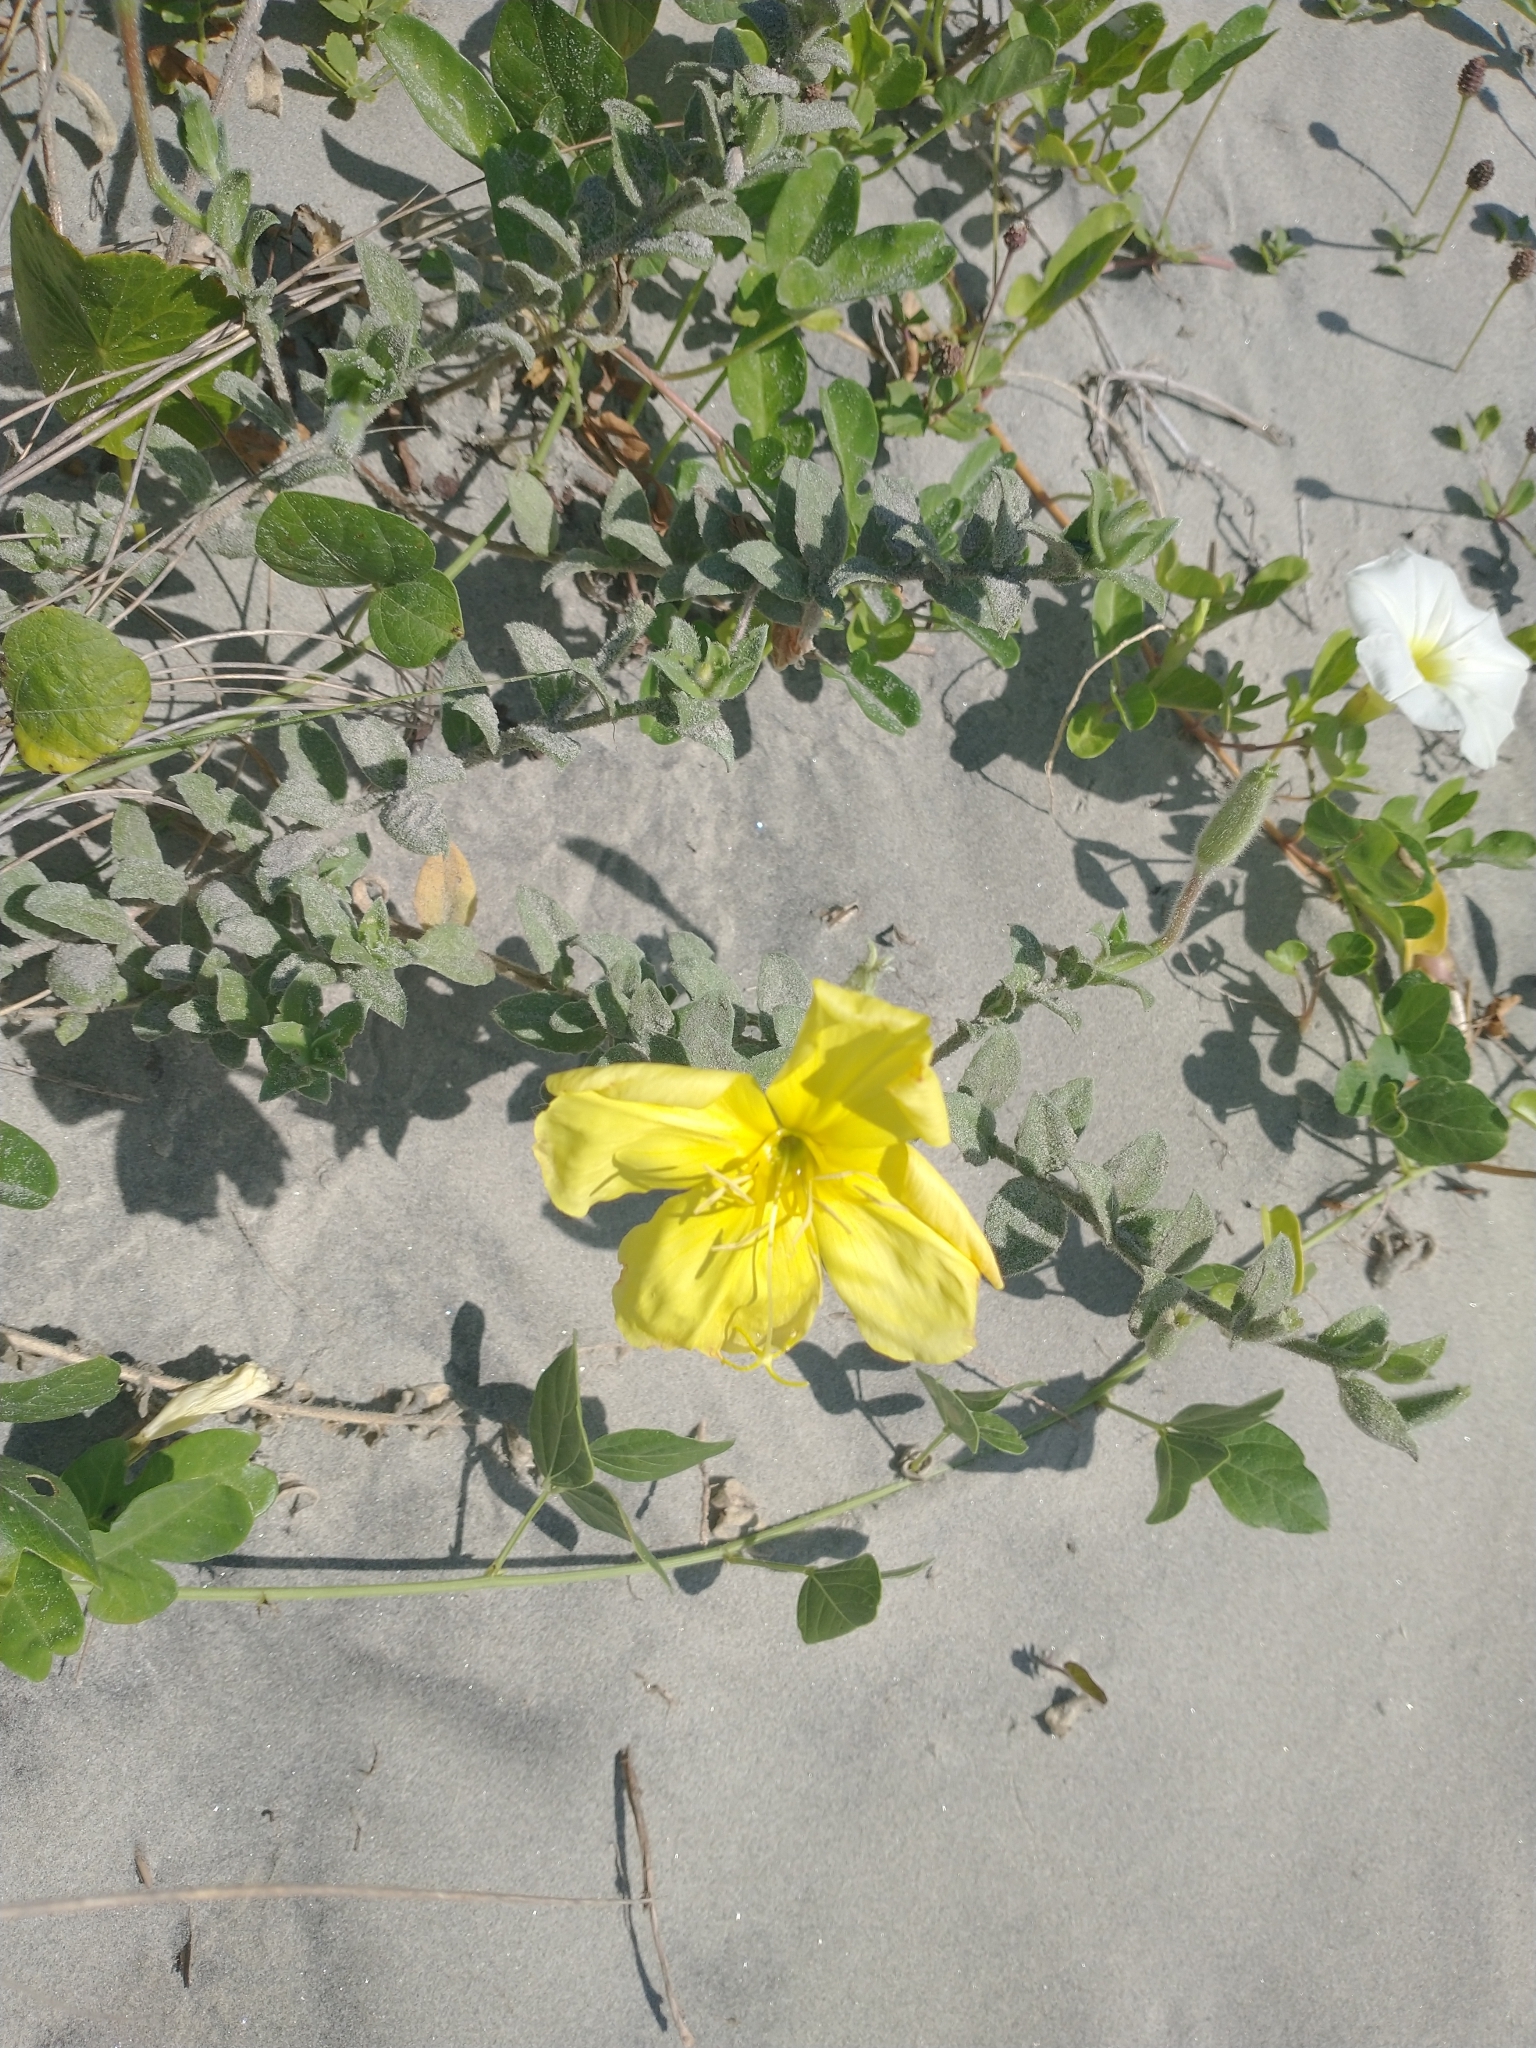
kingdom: Plantae
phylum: Tracheophyta
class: Magnoliopsida
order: Myrtales
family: Onagraceae
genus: Oenothera
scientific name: Oenothera drummondii
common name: Beach evening-primrose
